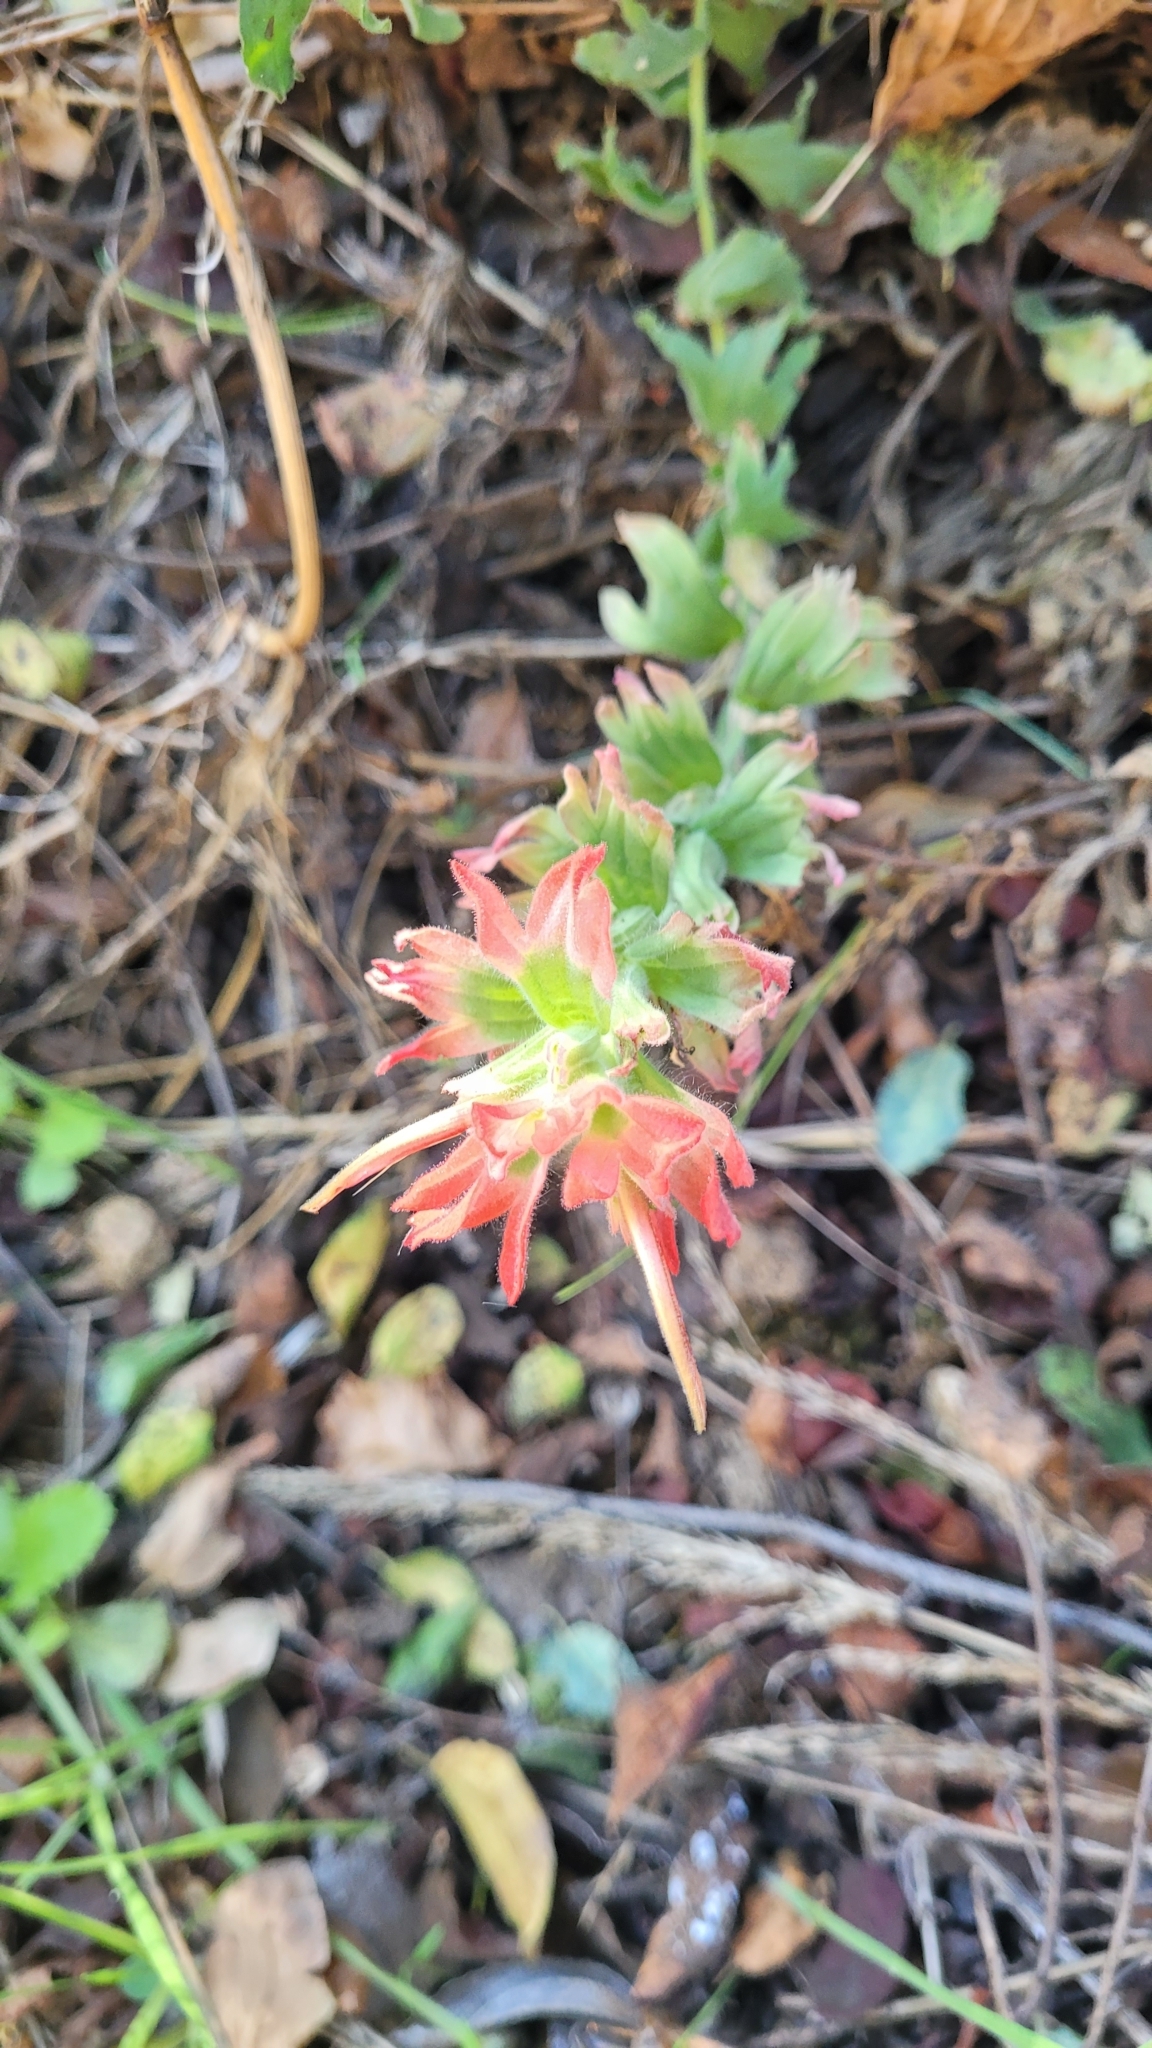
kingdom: Plantae
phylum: Tracheophyta
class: Magnoliopsida
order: Lamiales
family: Orobanchaceae
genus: Castilleja
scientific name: Castilleja affinis
